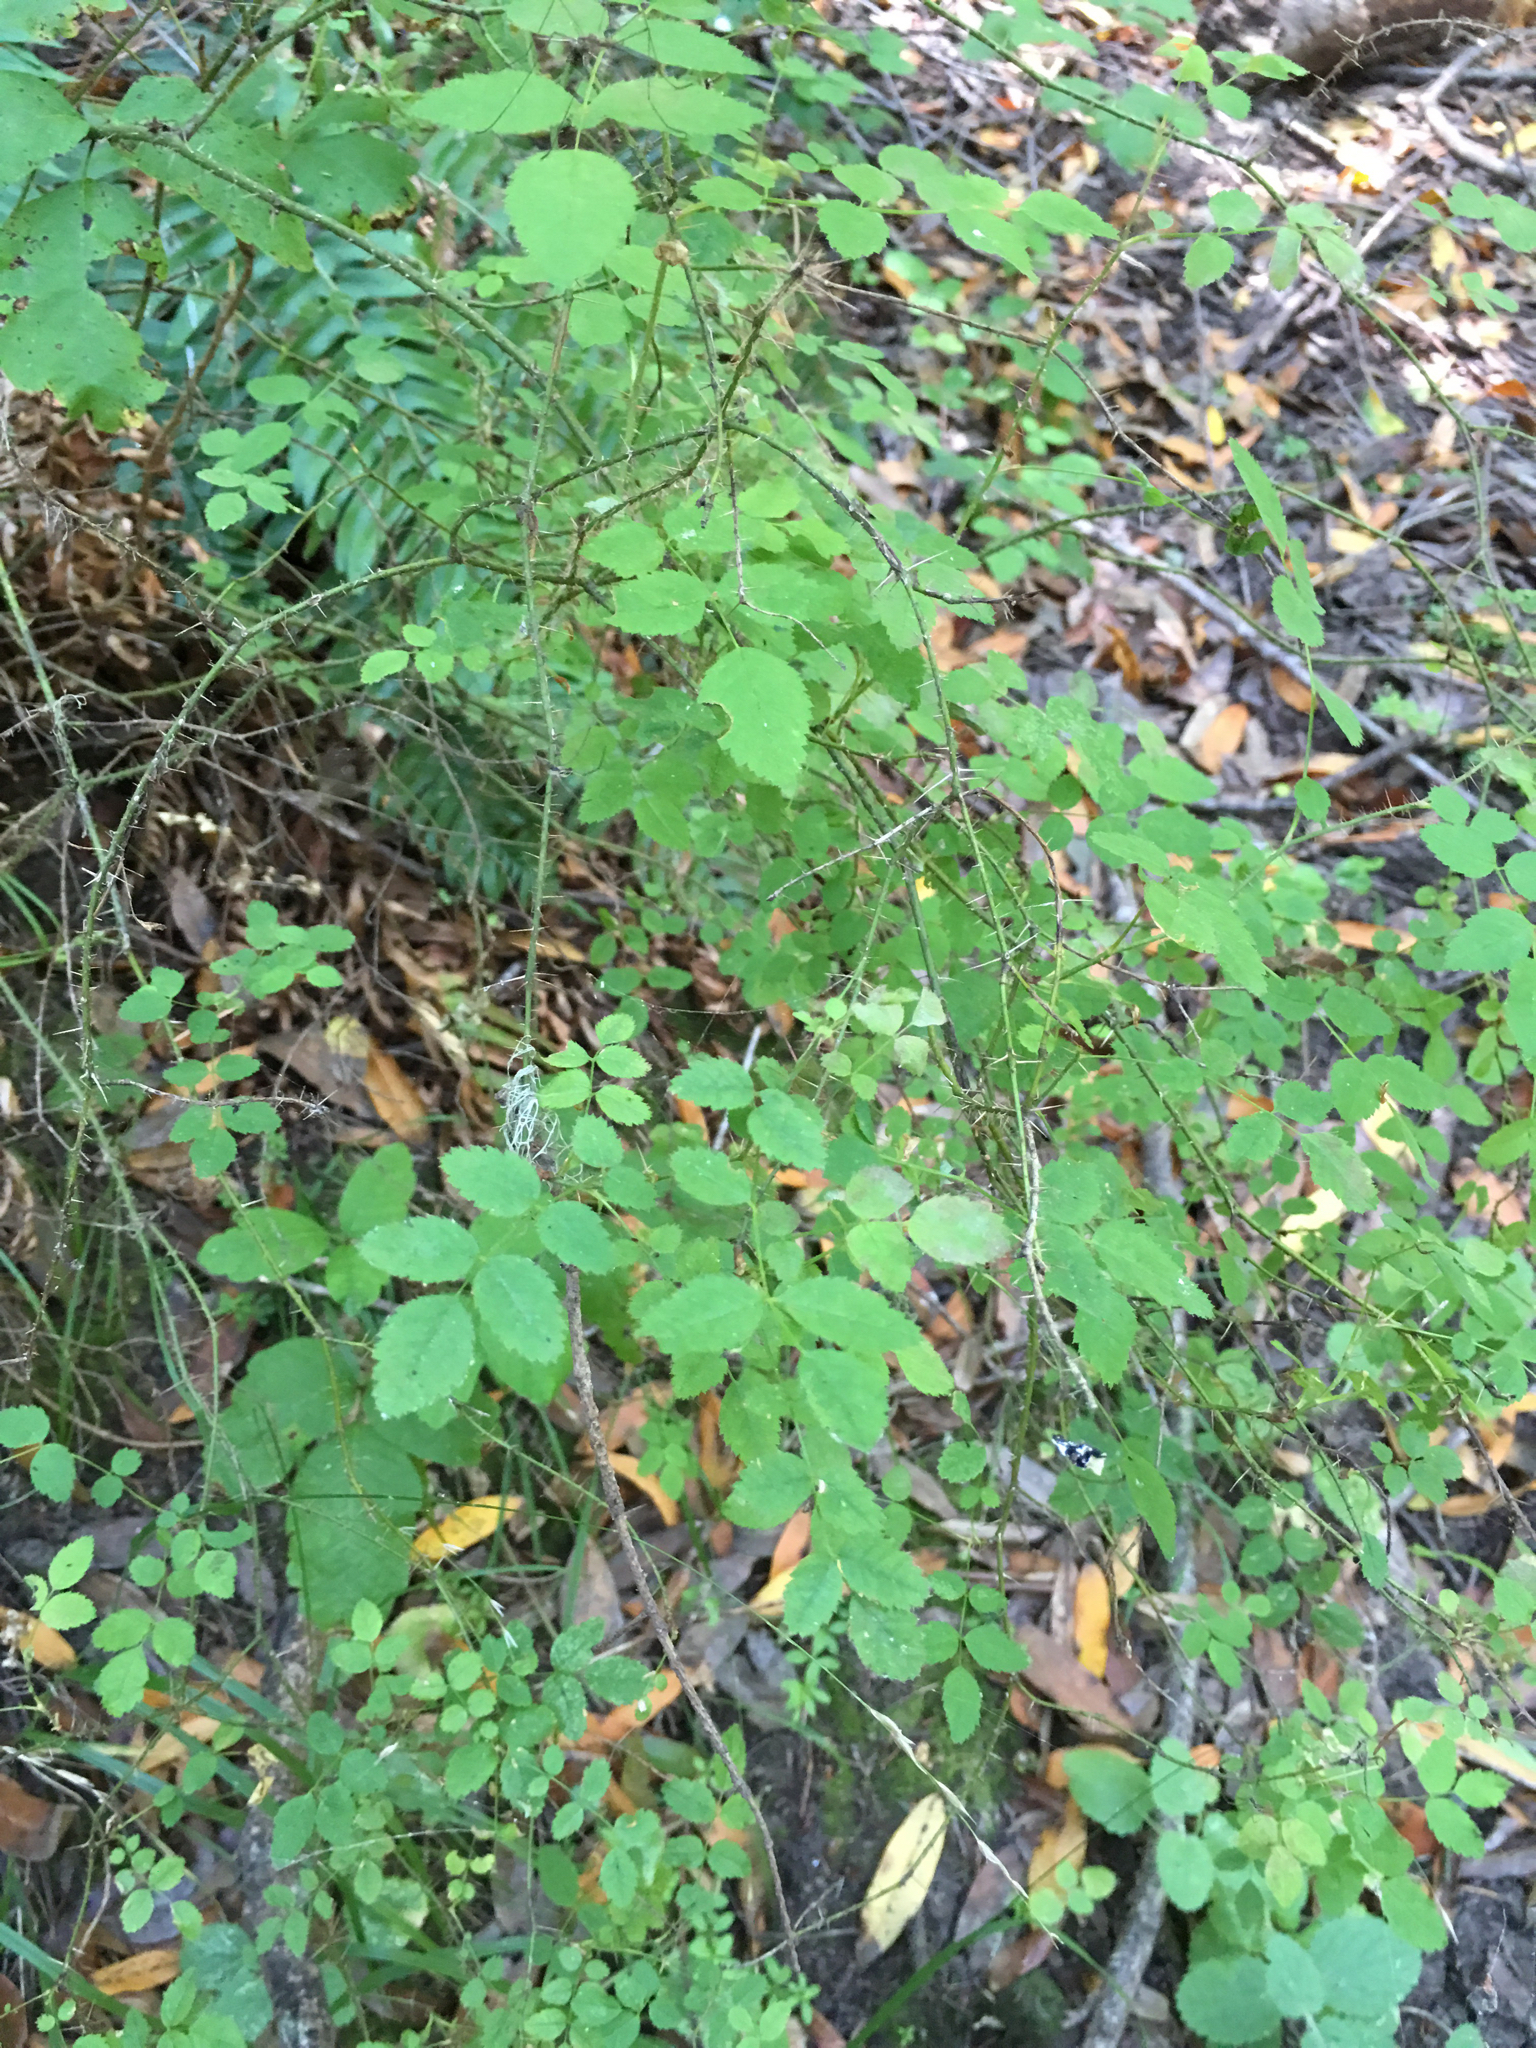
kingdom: Plantae
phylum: Tracheophyta
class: Magnoliopsida
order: Rosales
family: Rosaceae
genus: Rosa
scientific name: Rosa gymnocarpa
